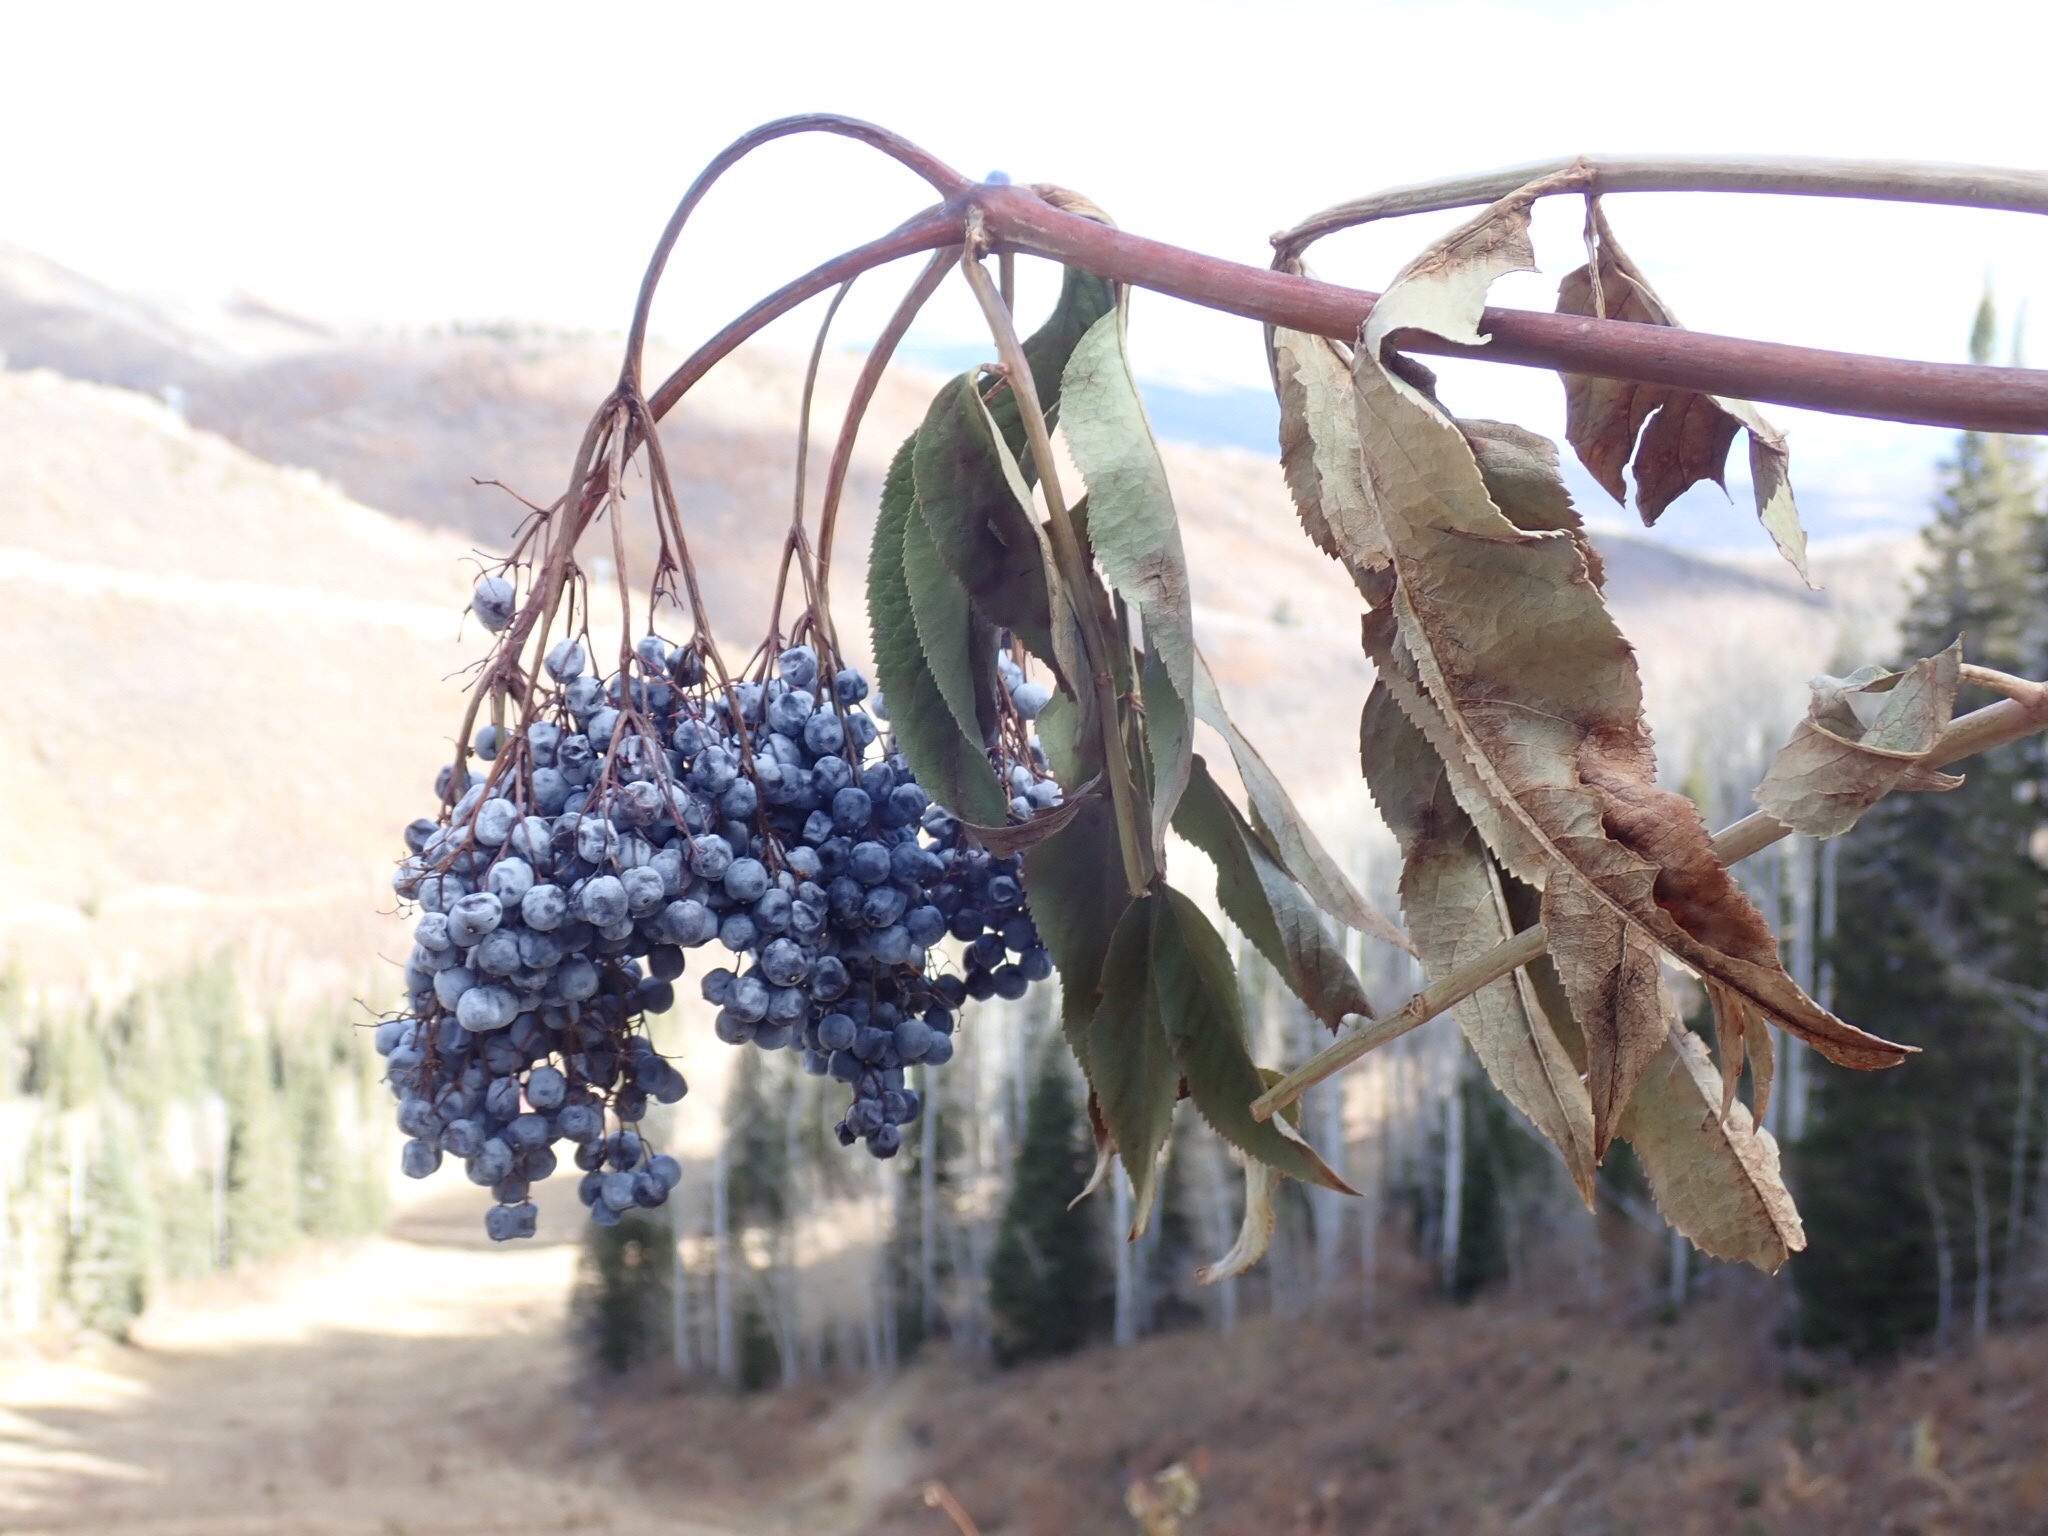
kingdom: Plantae
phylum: Tracheophyta
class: Magnoliopsida
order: Dipsacales
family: Viburnaceae
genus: Sambucus
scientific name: Sambucus cerulea
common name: Blue elder
